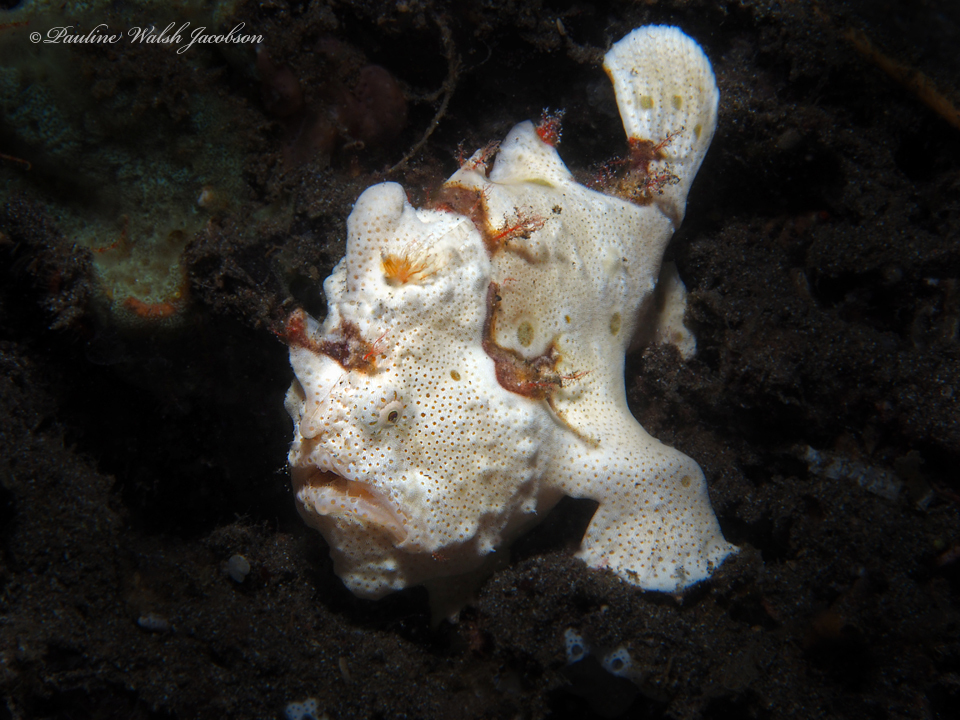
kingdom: Animalia
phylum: Chordata
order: Lophiiformes
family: Antennariidae
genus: Antennarius
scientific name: Antennarius pictus
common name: Painted frogfish
